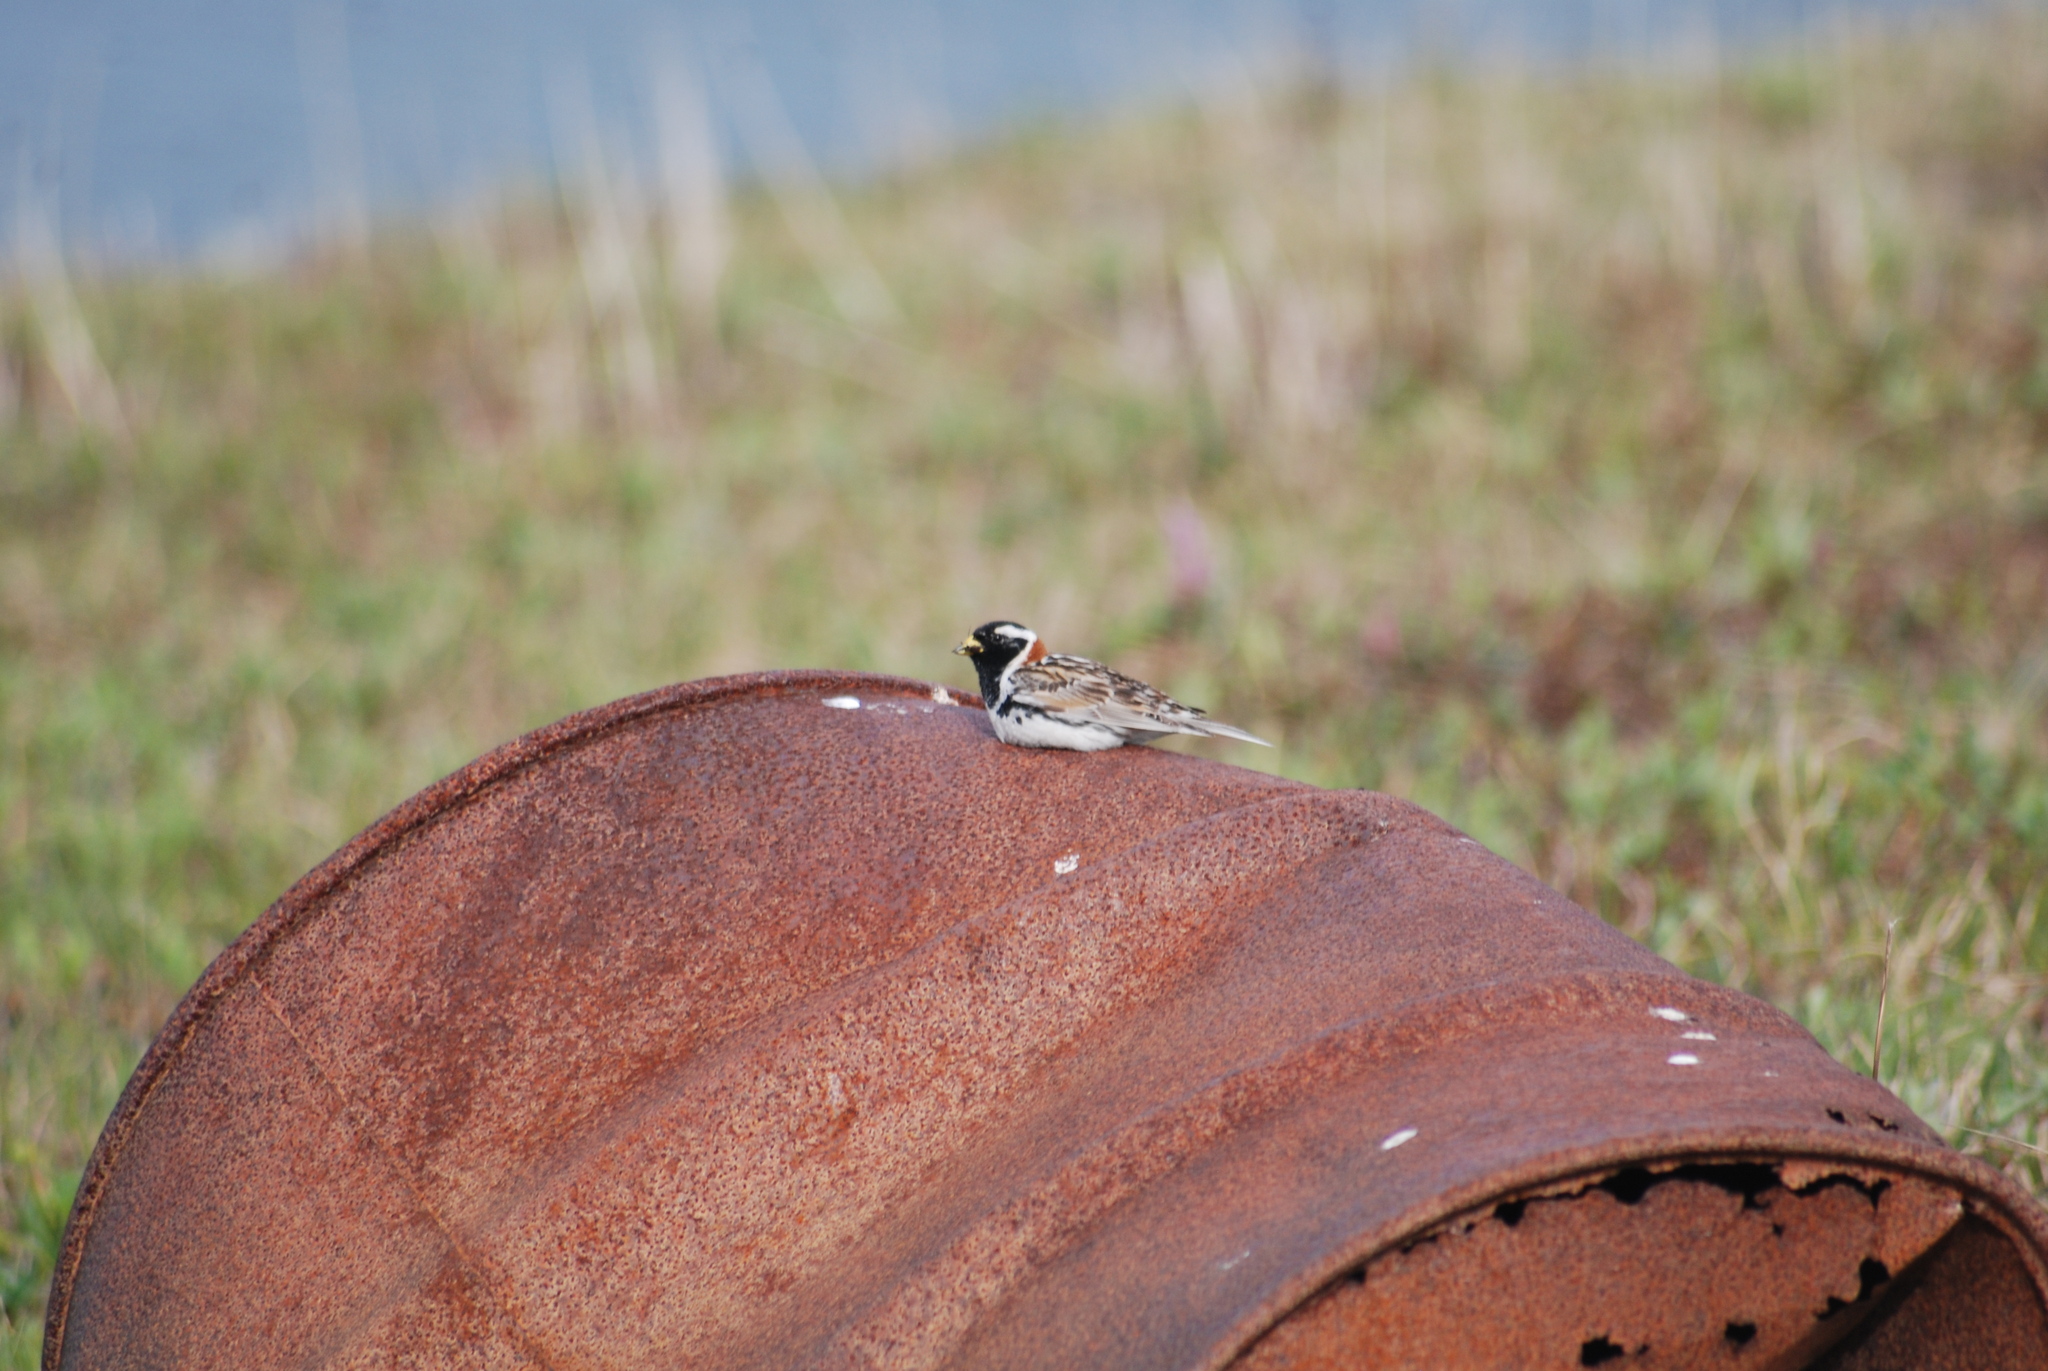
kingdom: Animalia
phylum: Chordata
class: Aves
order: Passeriformes
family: Calcariidae
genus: Calcarius
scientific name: Calcarius lapponicus
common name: Lapland longspur
